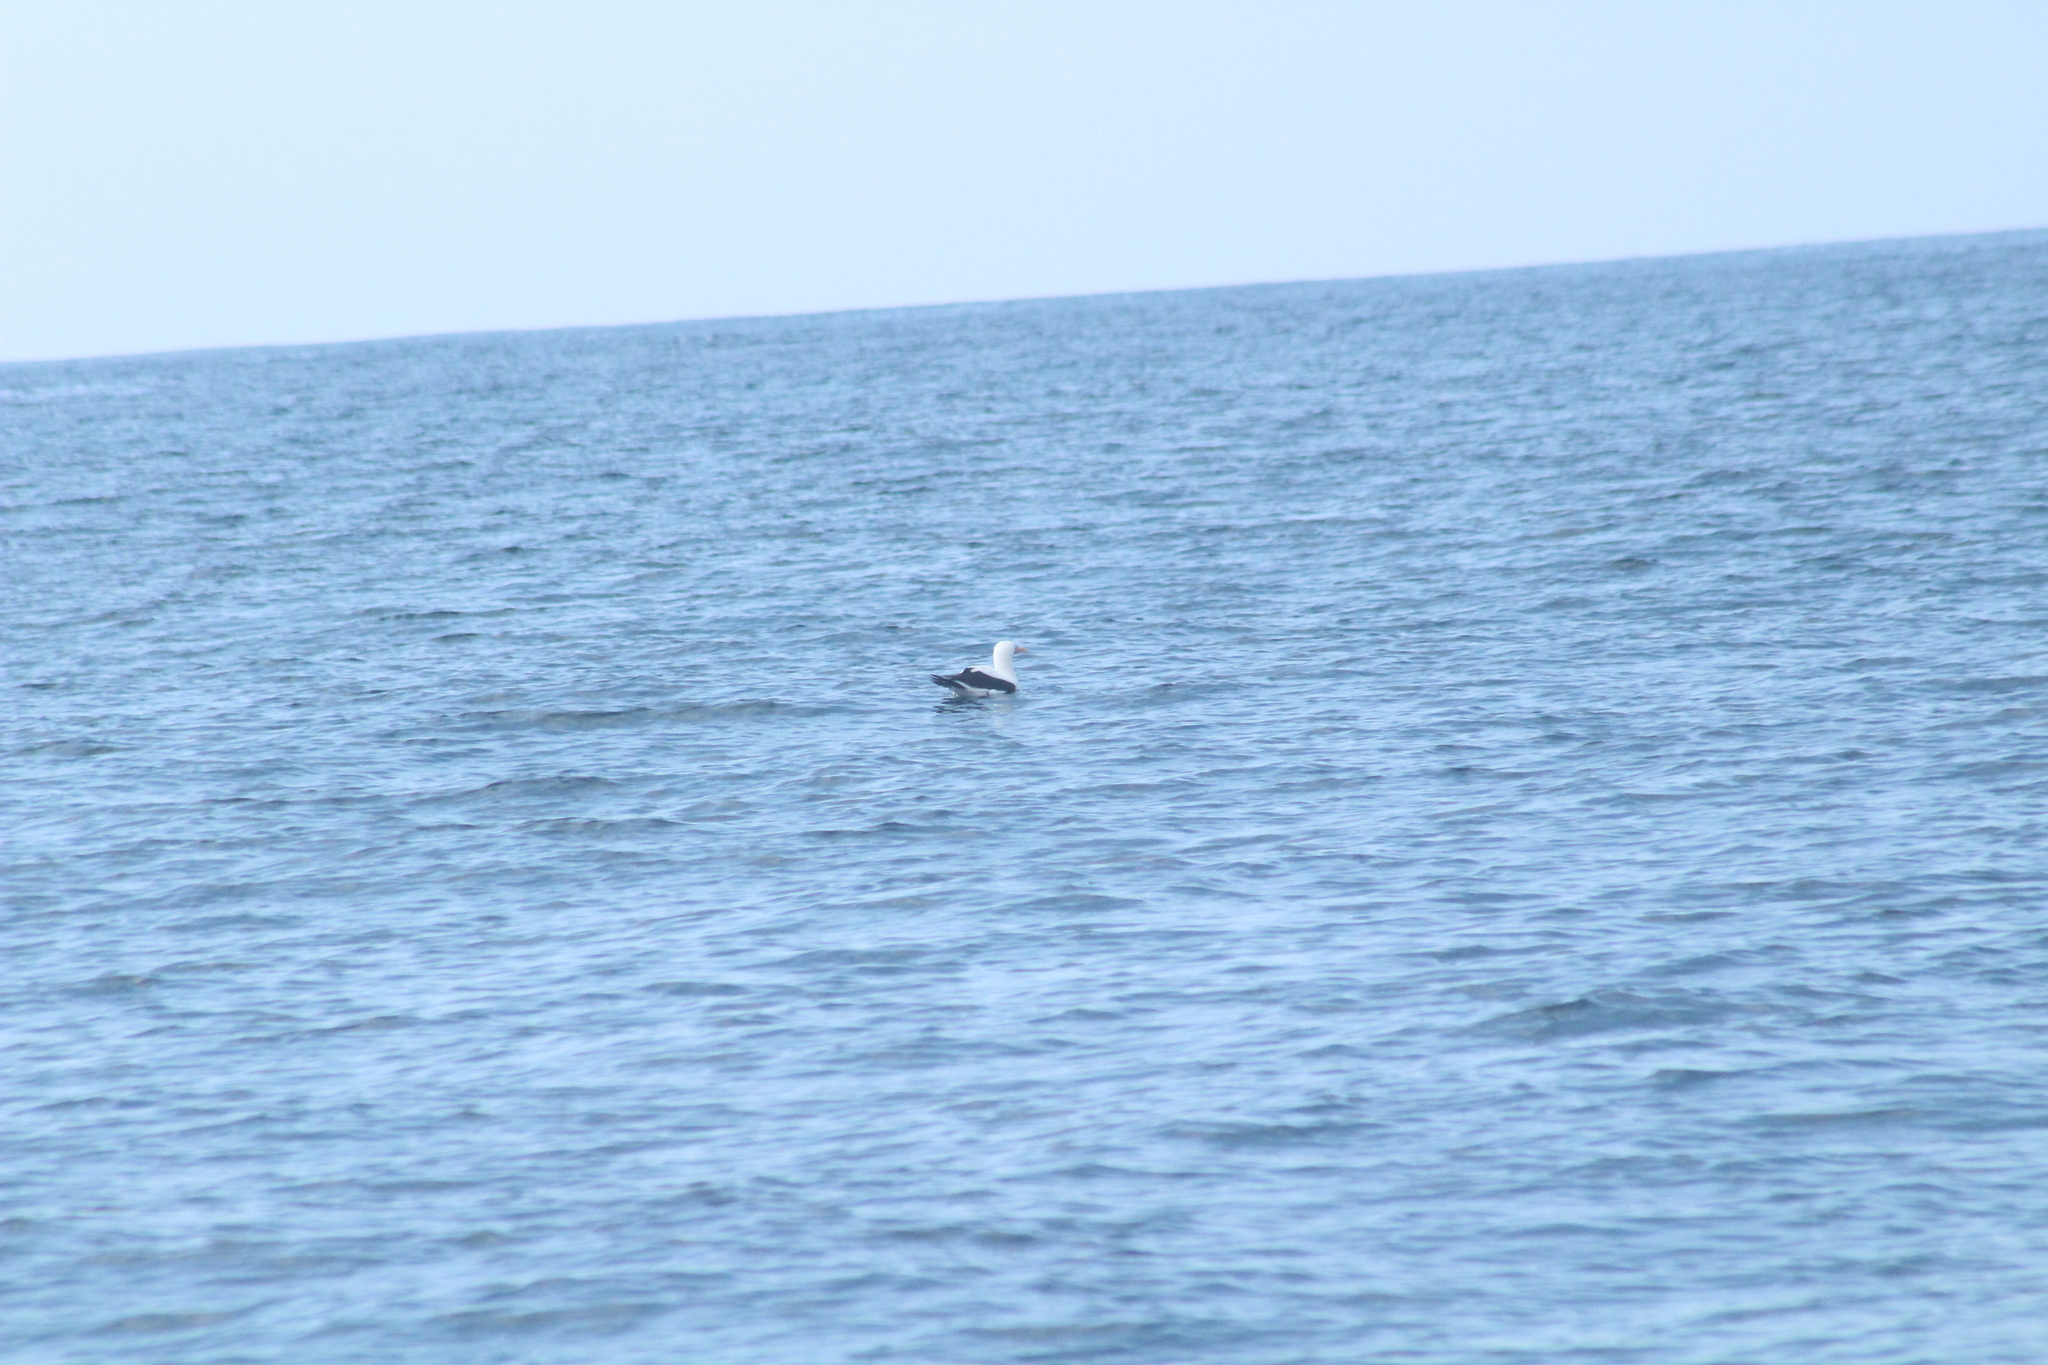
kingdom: Animalia
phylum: Chordata
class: Aves
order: Suliformes
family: Sulidae
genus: Sula
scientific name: Sula granti
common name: Nazca booby
